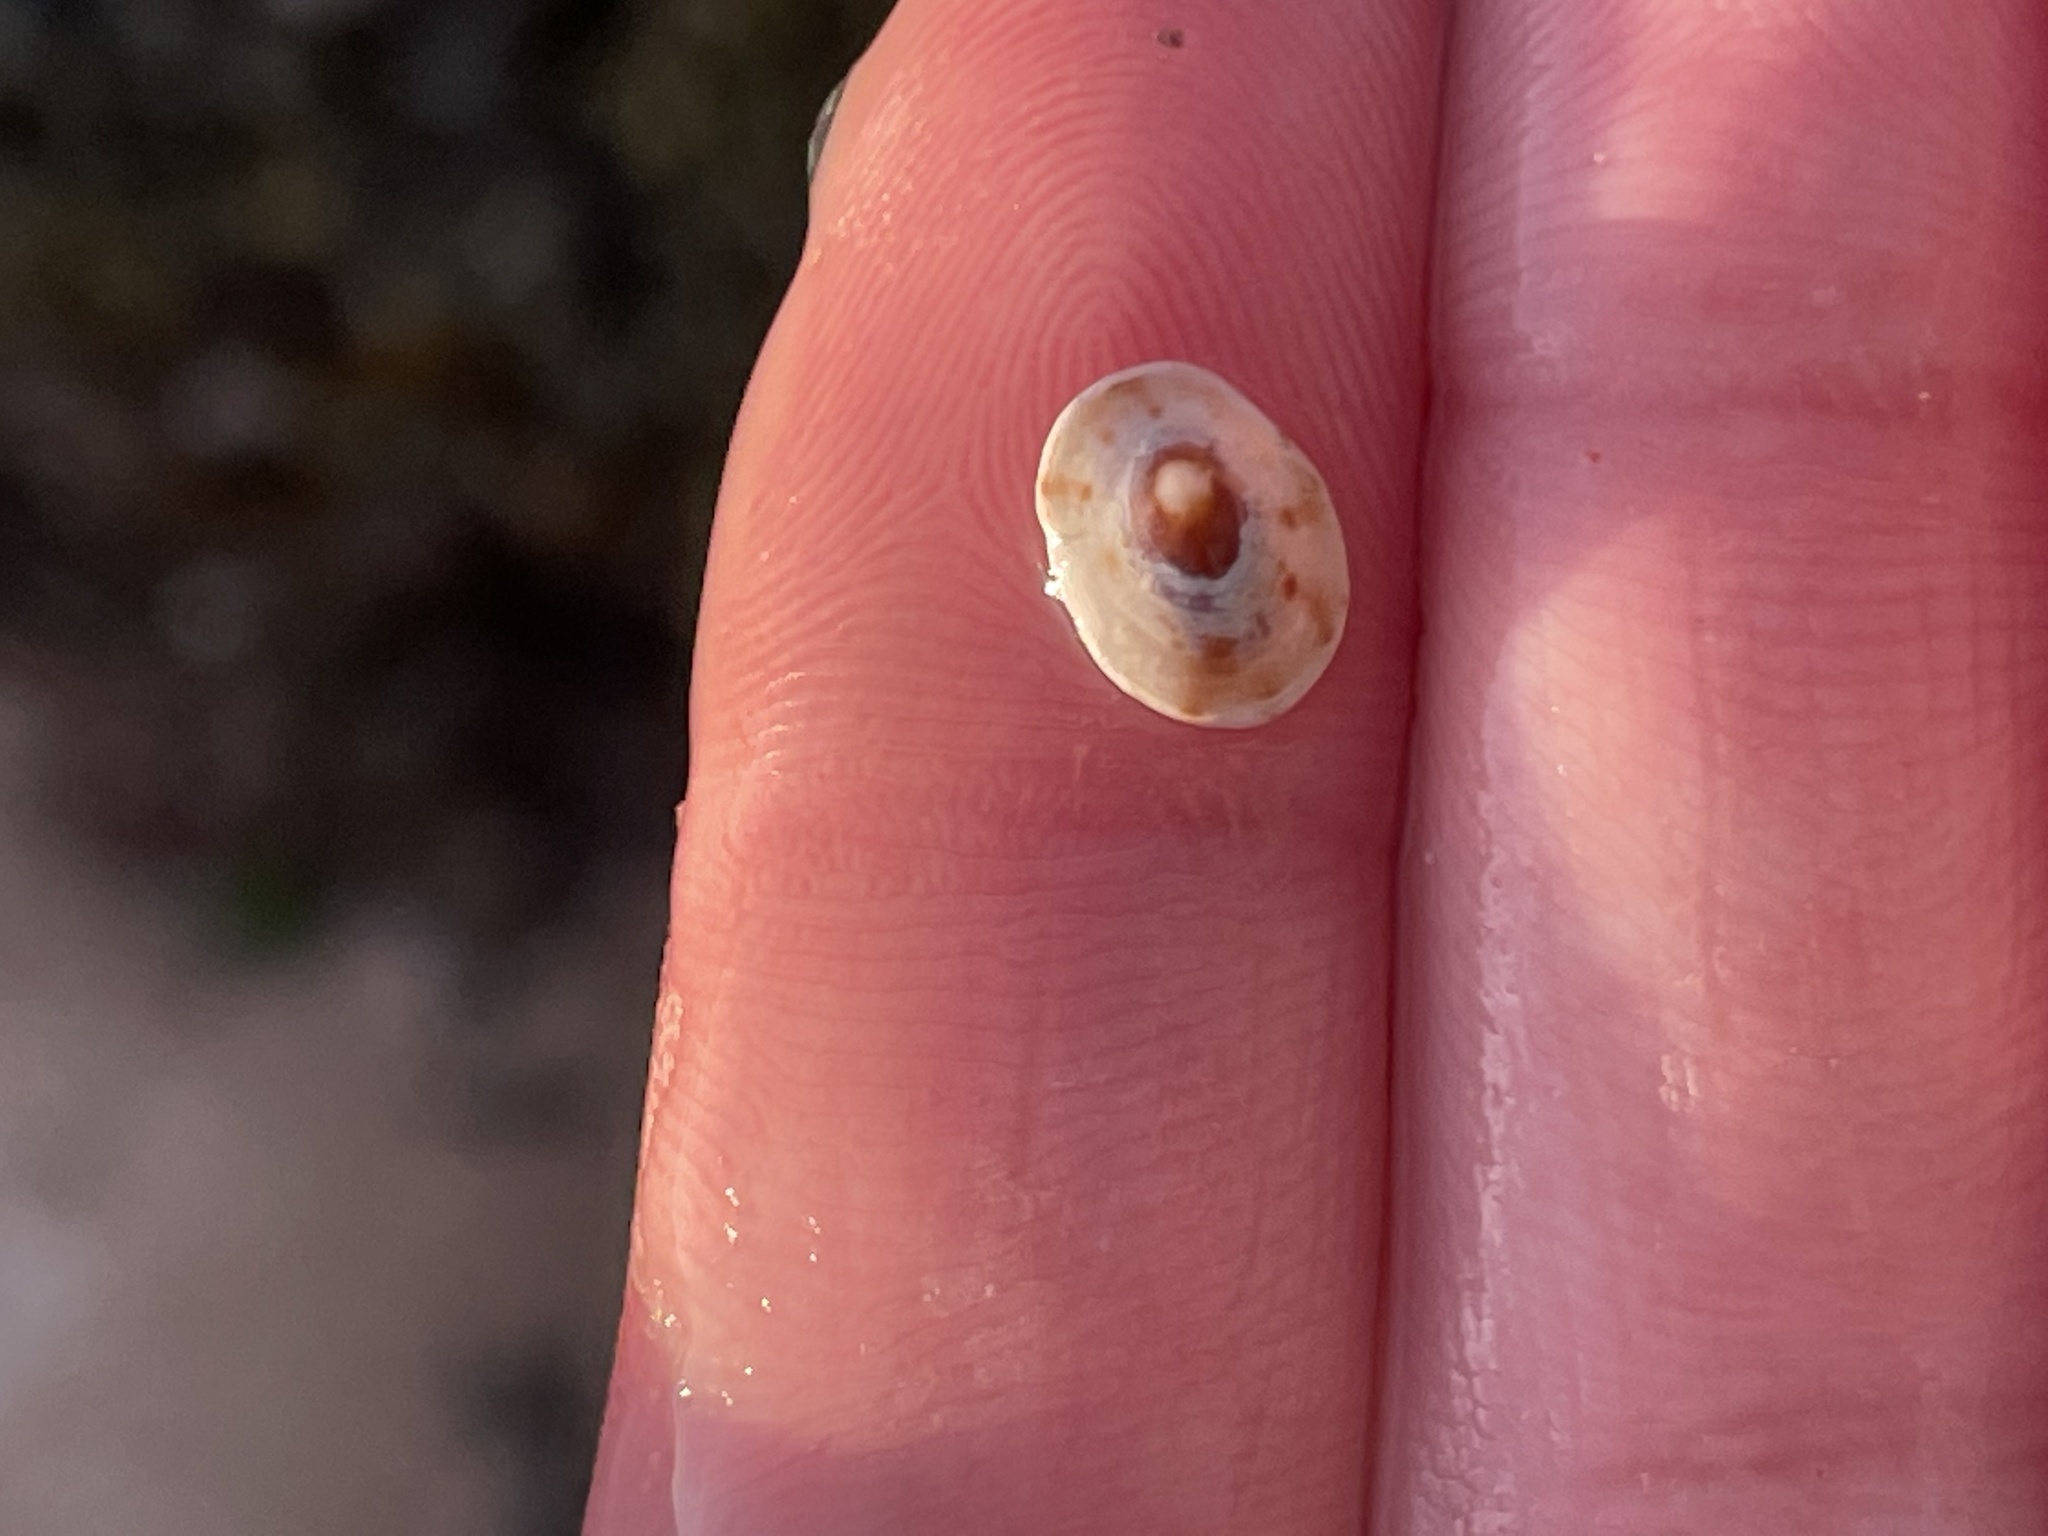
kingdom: Animalia
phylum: Mollusca
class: Gastropoda
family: Lottiidae
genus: Testudinalia
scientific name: Testudinalia testudinalis
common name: Common tortoiseshell limpet
